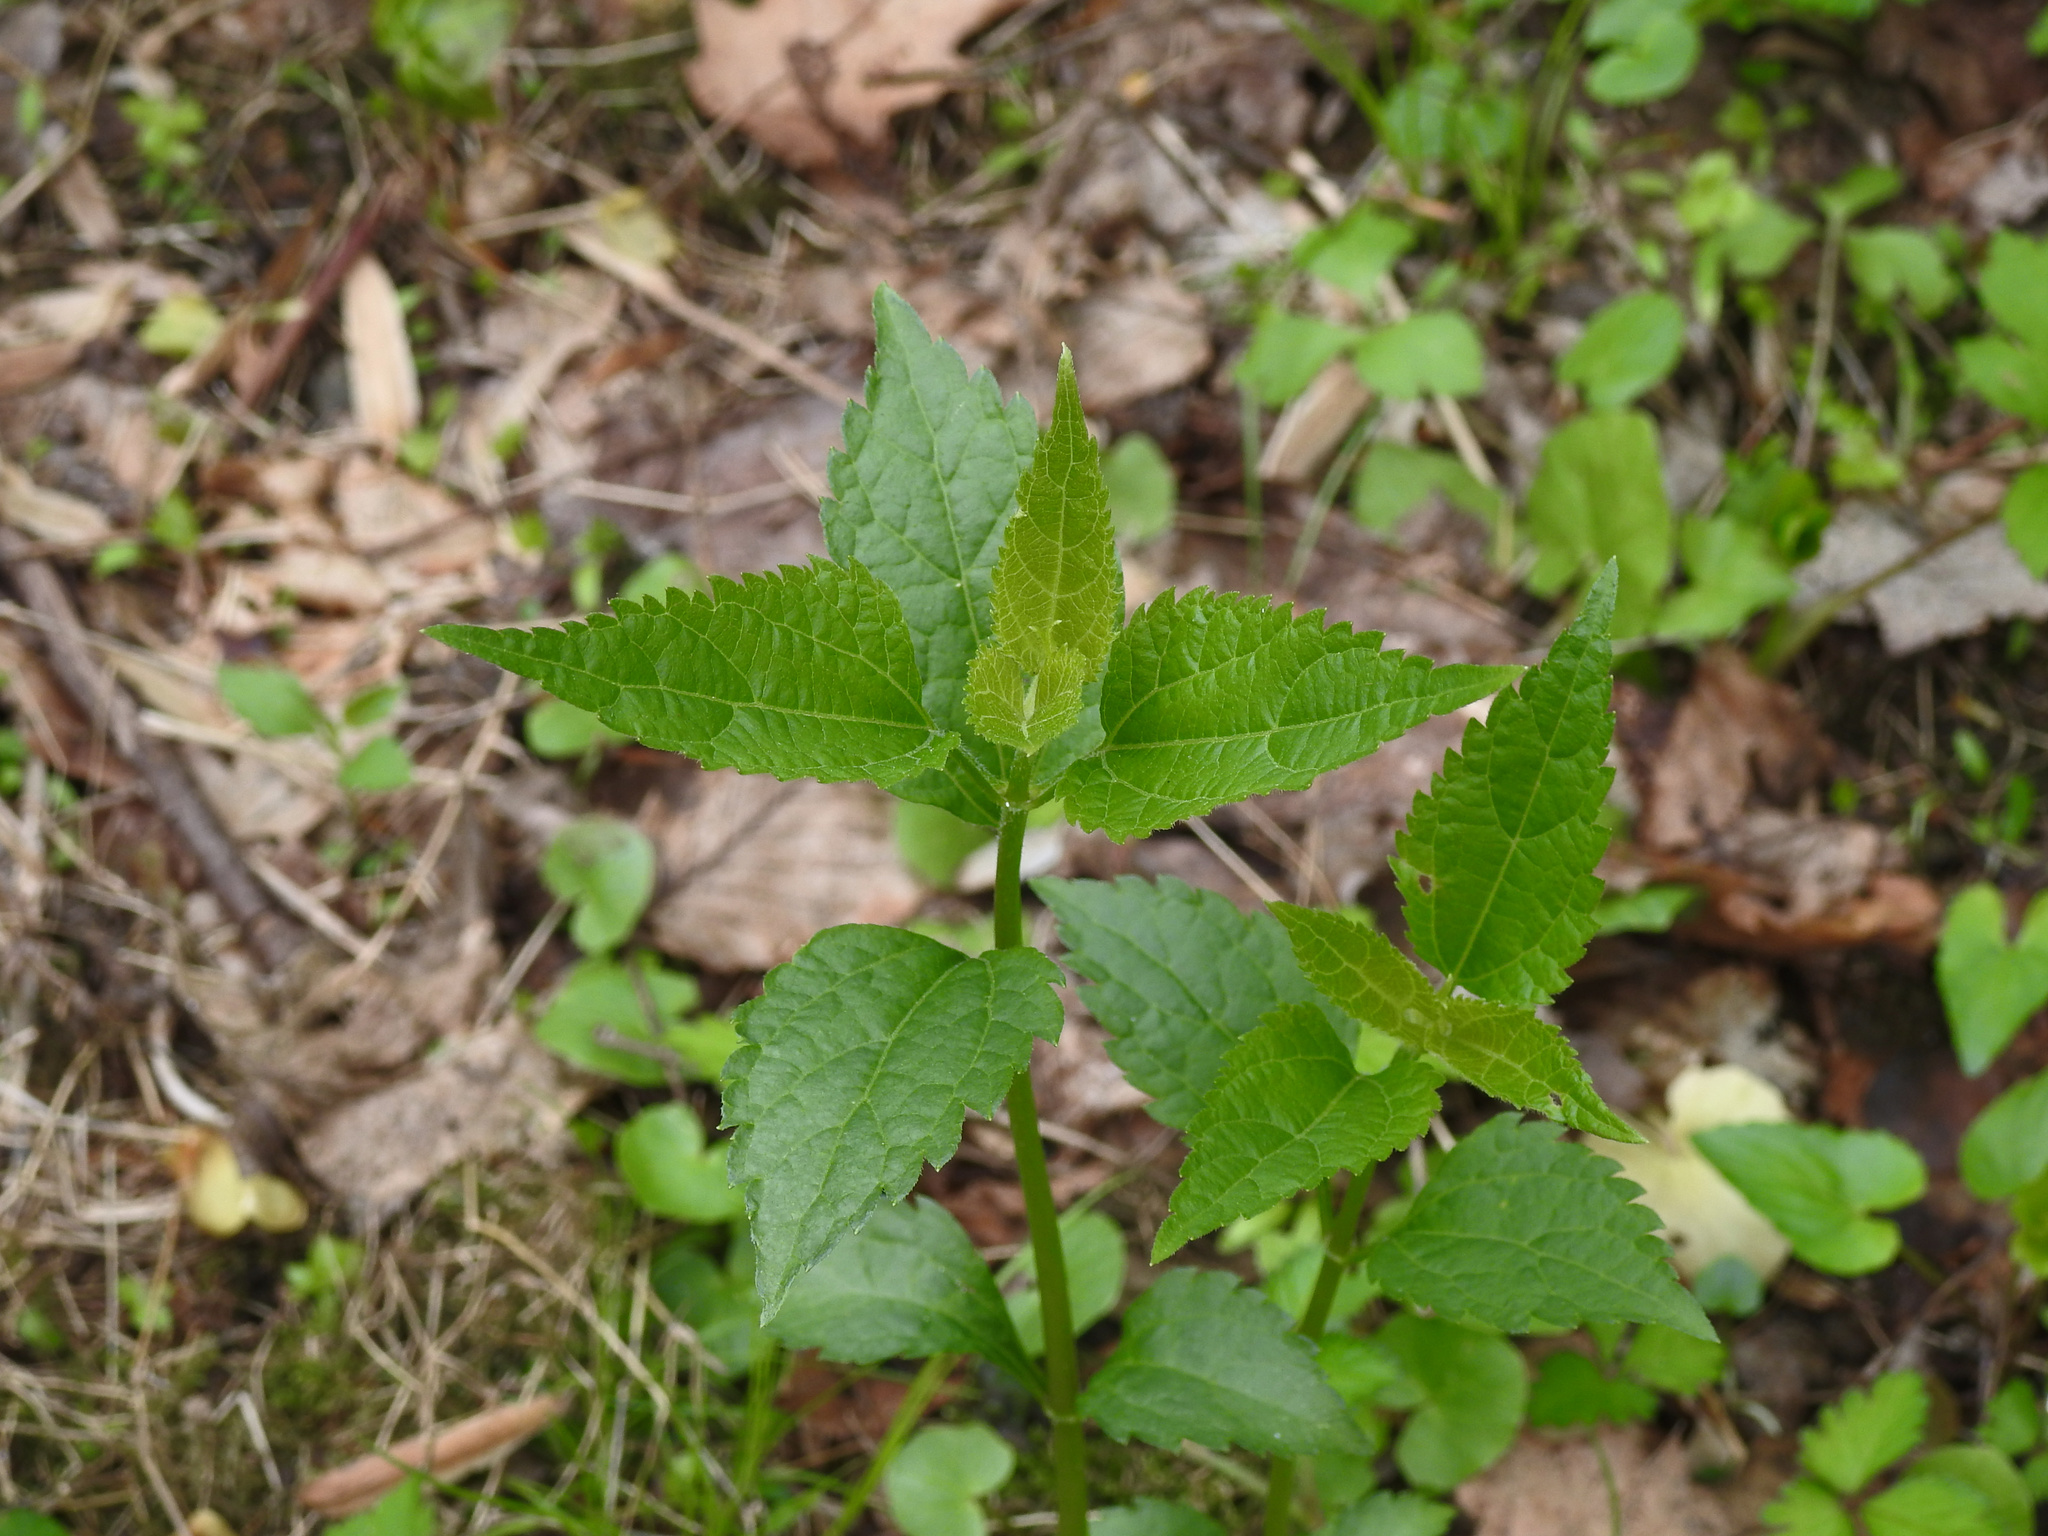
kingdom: Plantae
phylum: Tracheophyta
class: Magnoliopsida
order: Asterales
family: Asteraceae
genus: Ageratina
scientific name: Ageratina altissima
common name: White snakeroot
